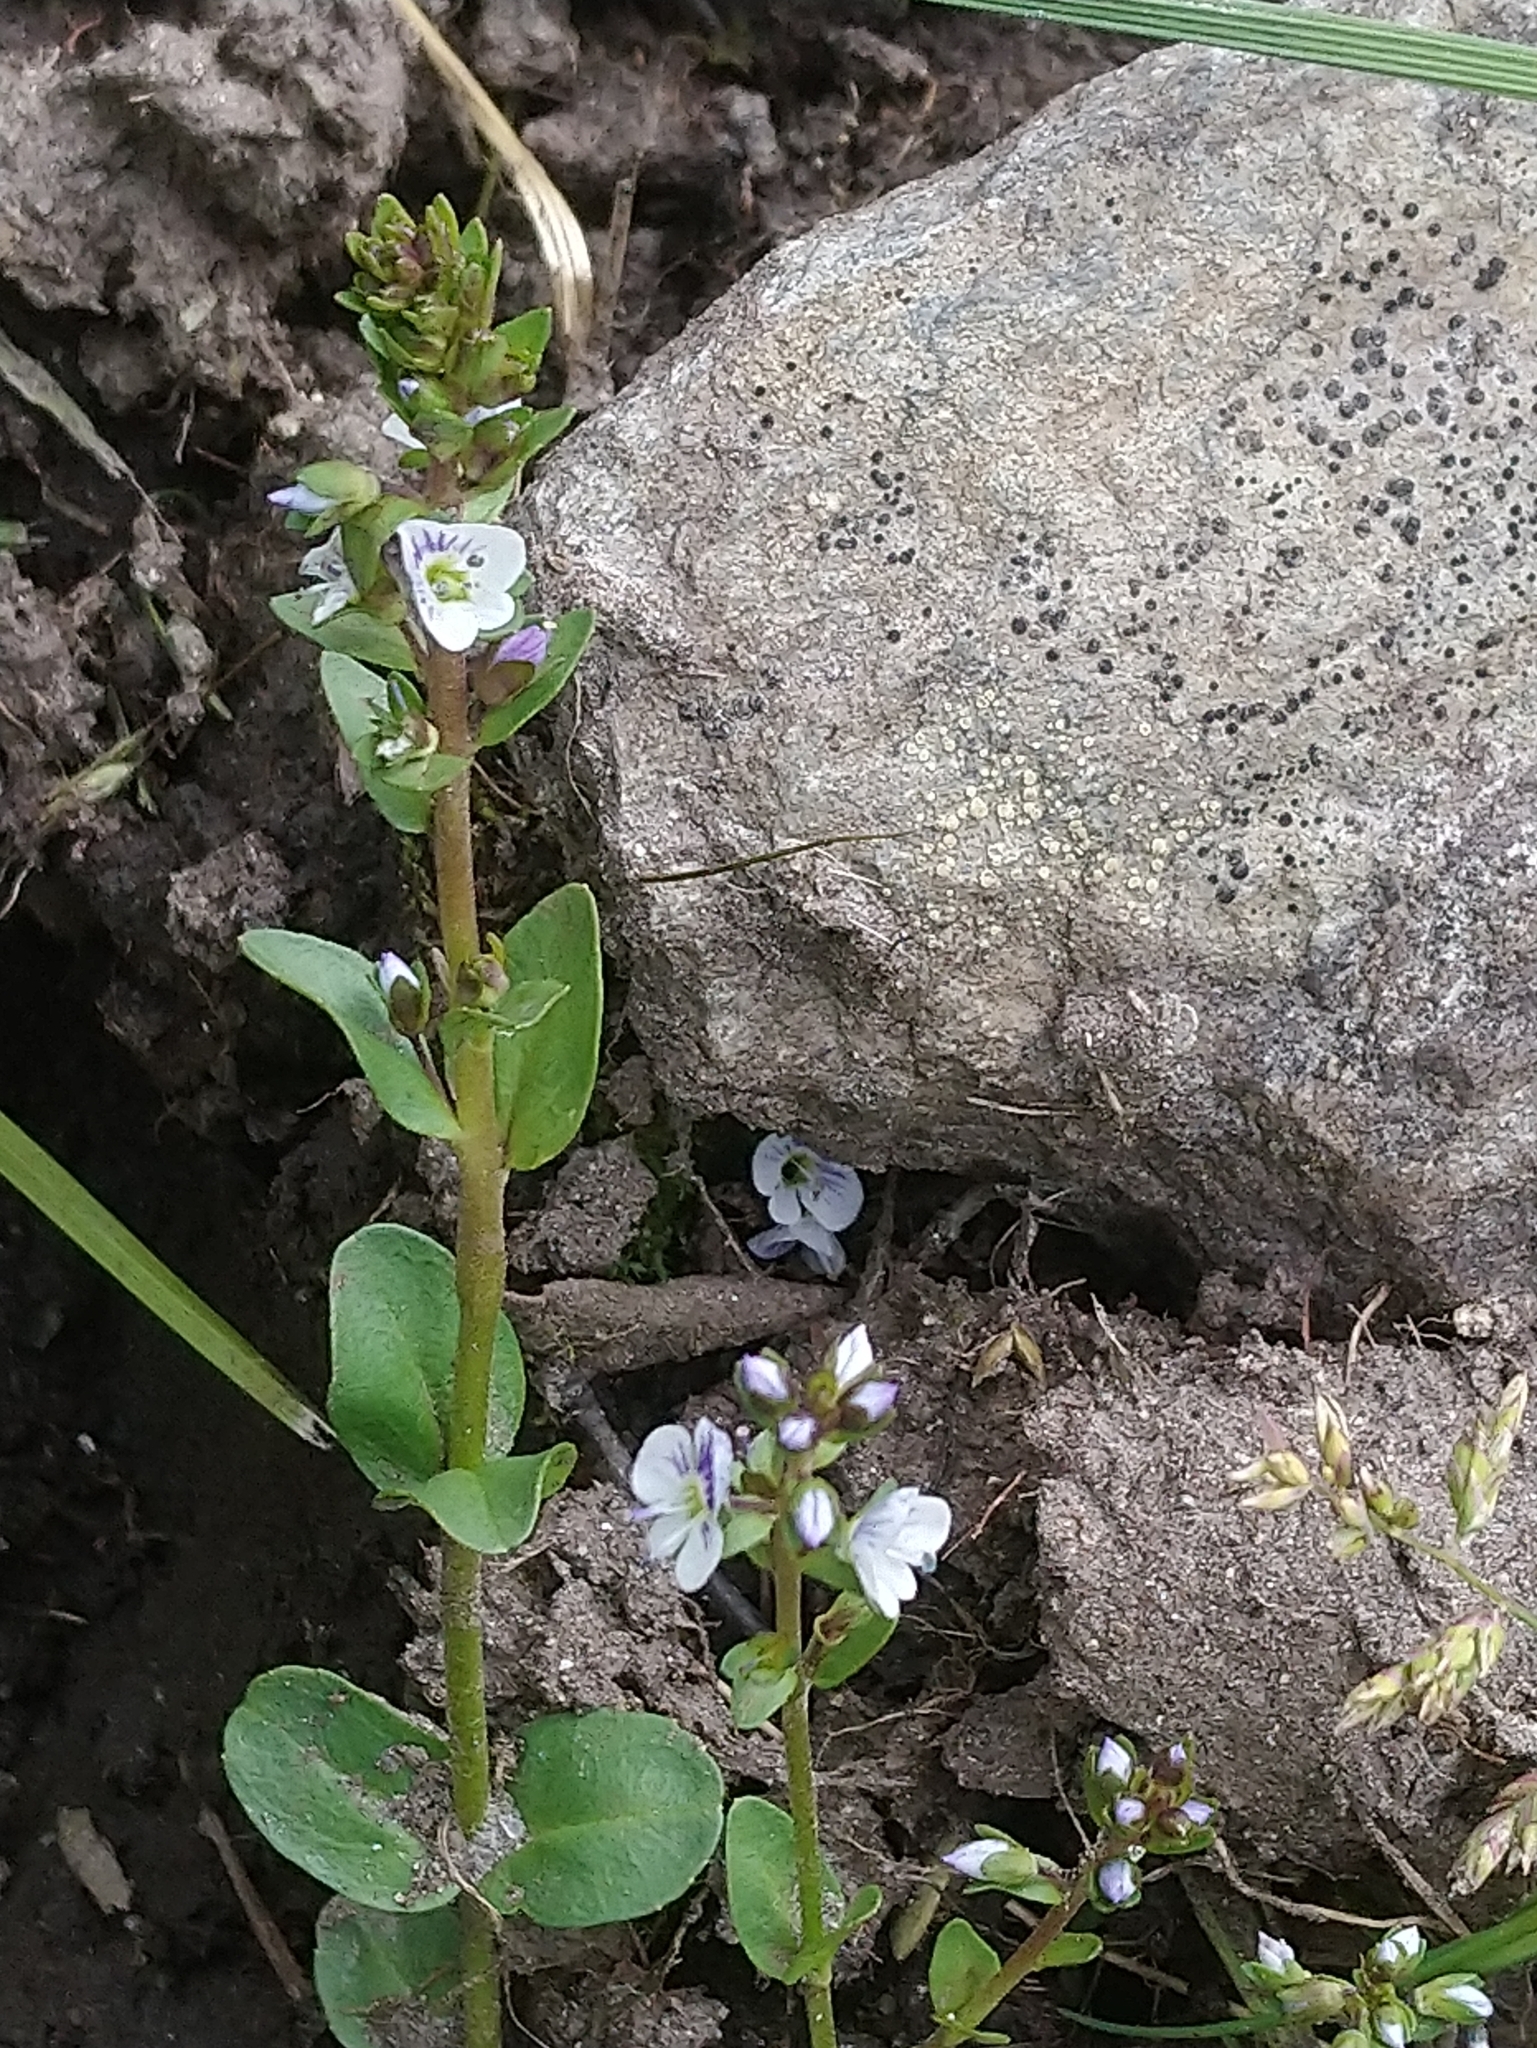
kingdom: Plantae
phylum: Tracheophyta
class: Magnoliopsida
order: Lamiales
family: Plantaginaceae
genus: Veronica
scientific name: Veronica serpyllifolia
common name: Thyme-leaved speedwell
